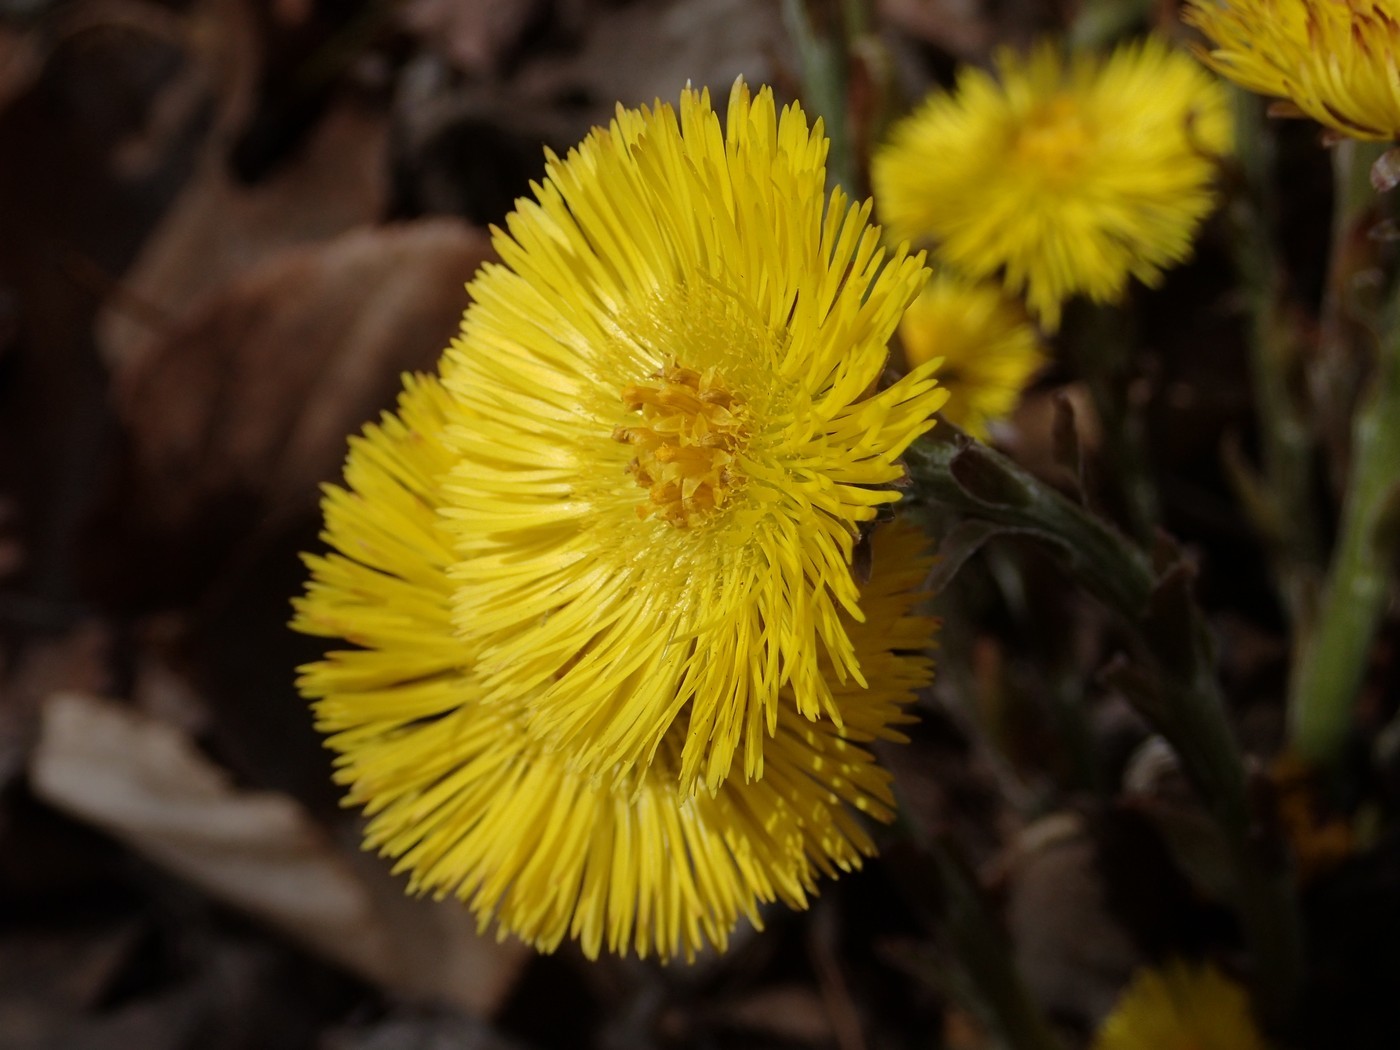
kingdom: Plantae
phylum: Tracheophyta
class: Magnoliopsida
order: Asterales
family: Asteraceae
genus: Tussilago
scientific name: Tussilago farfara
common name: Coltsfoot
